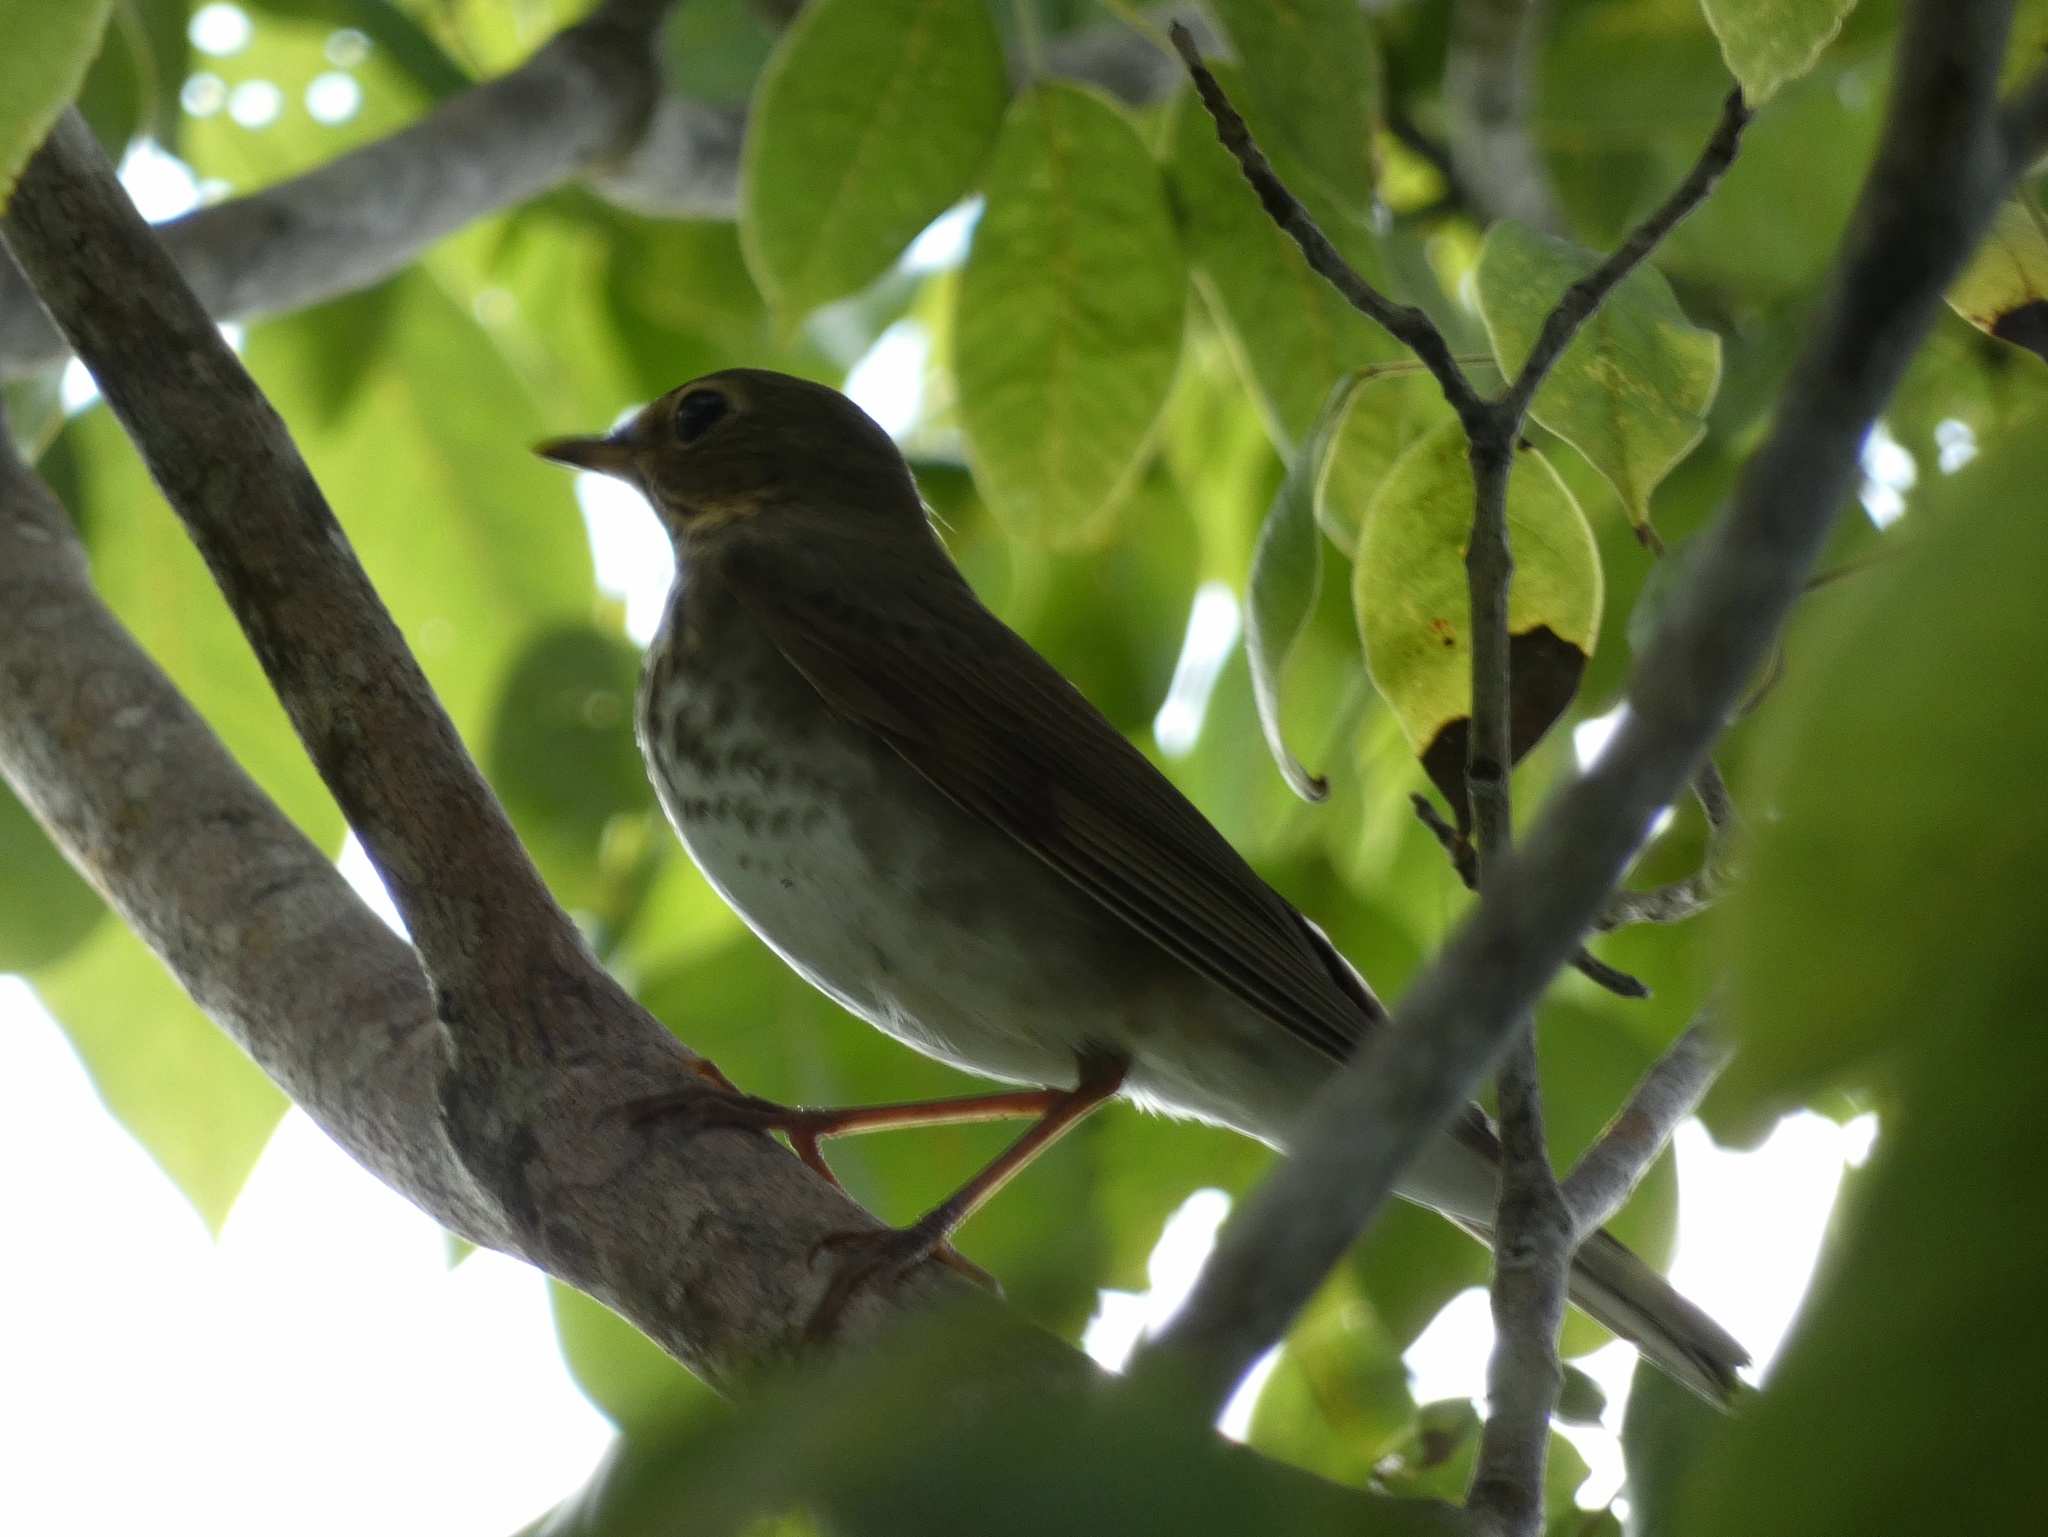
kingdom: Animalia
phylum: Chordata
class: Aves
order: Passeriformes
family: Turdidae
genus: Catharus
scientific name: Catharus ustulatus
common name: Swainson's thrush
